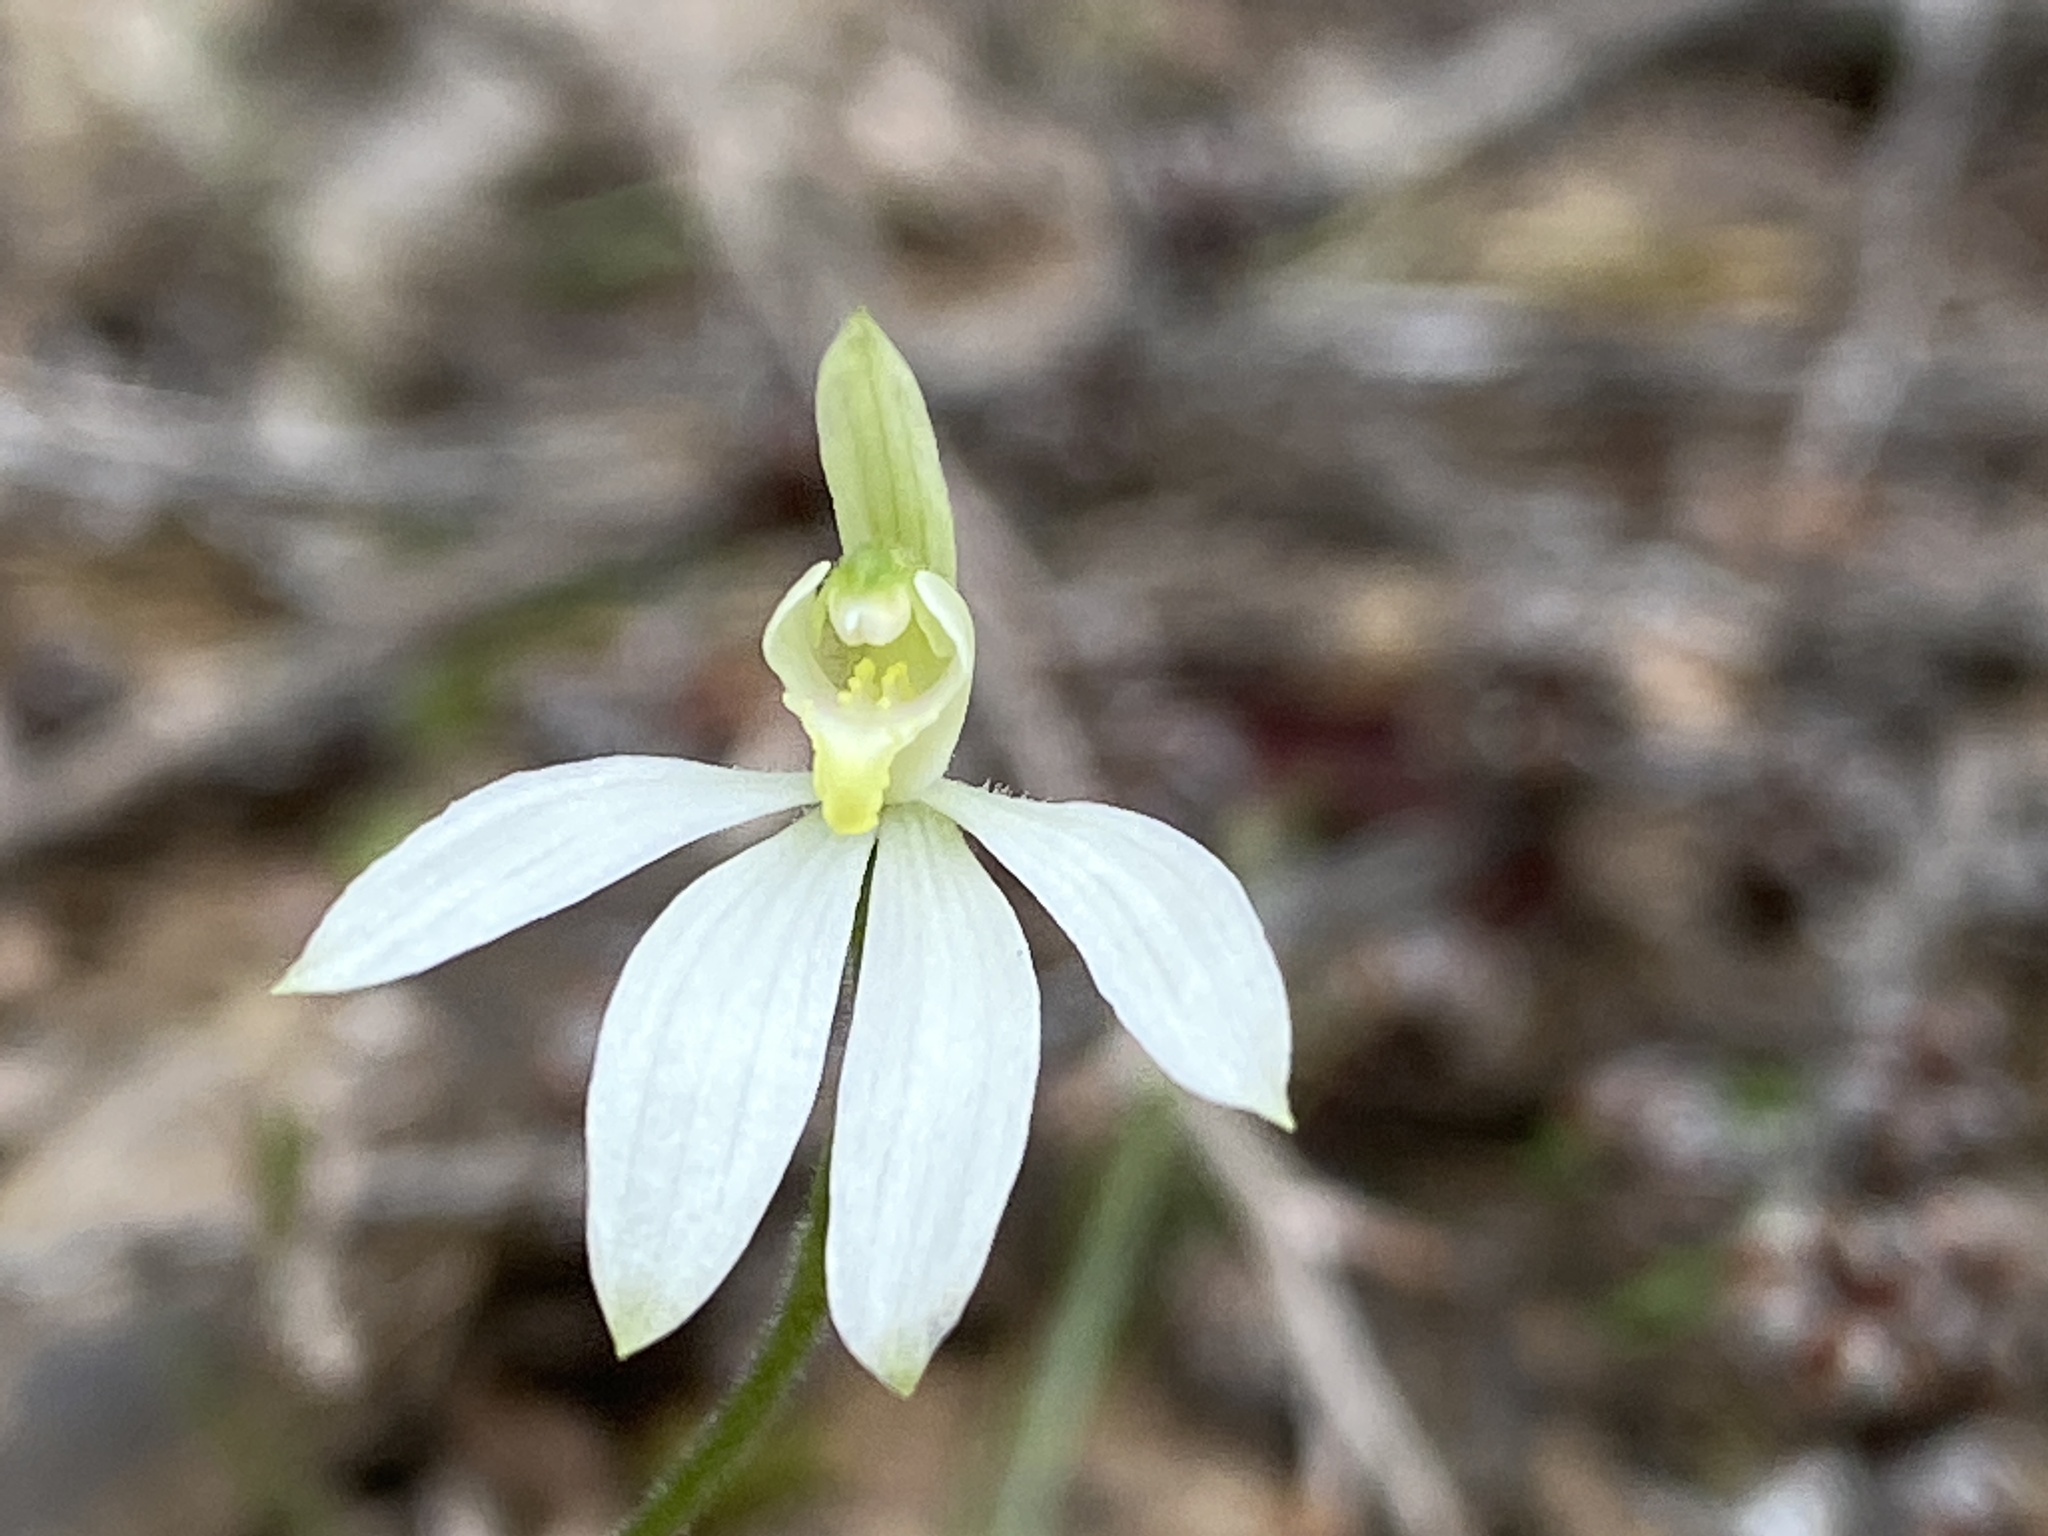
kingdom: Plantae
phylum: Tracheophyta
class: Liliopsida
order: Asparagales
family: Orchidaceae
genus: Caladenia
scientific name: Caladenia carnea
